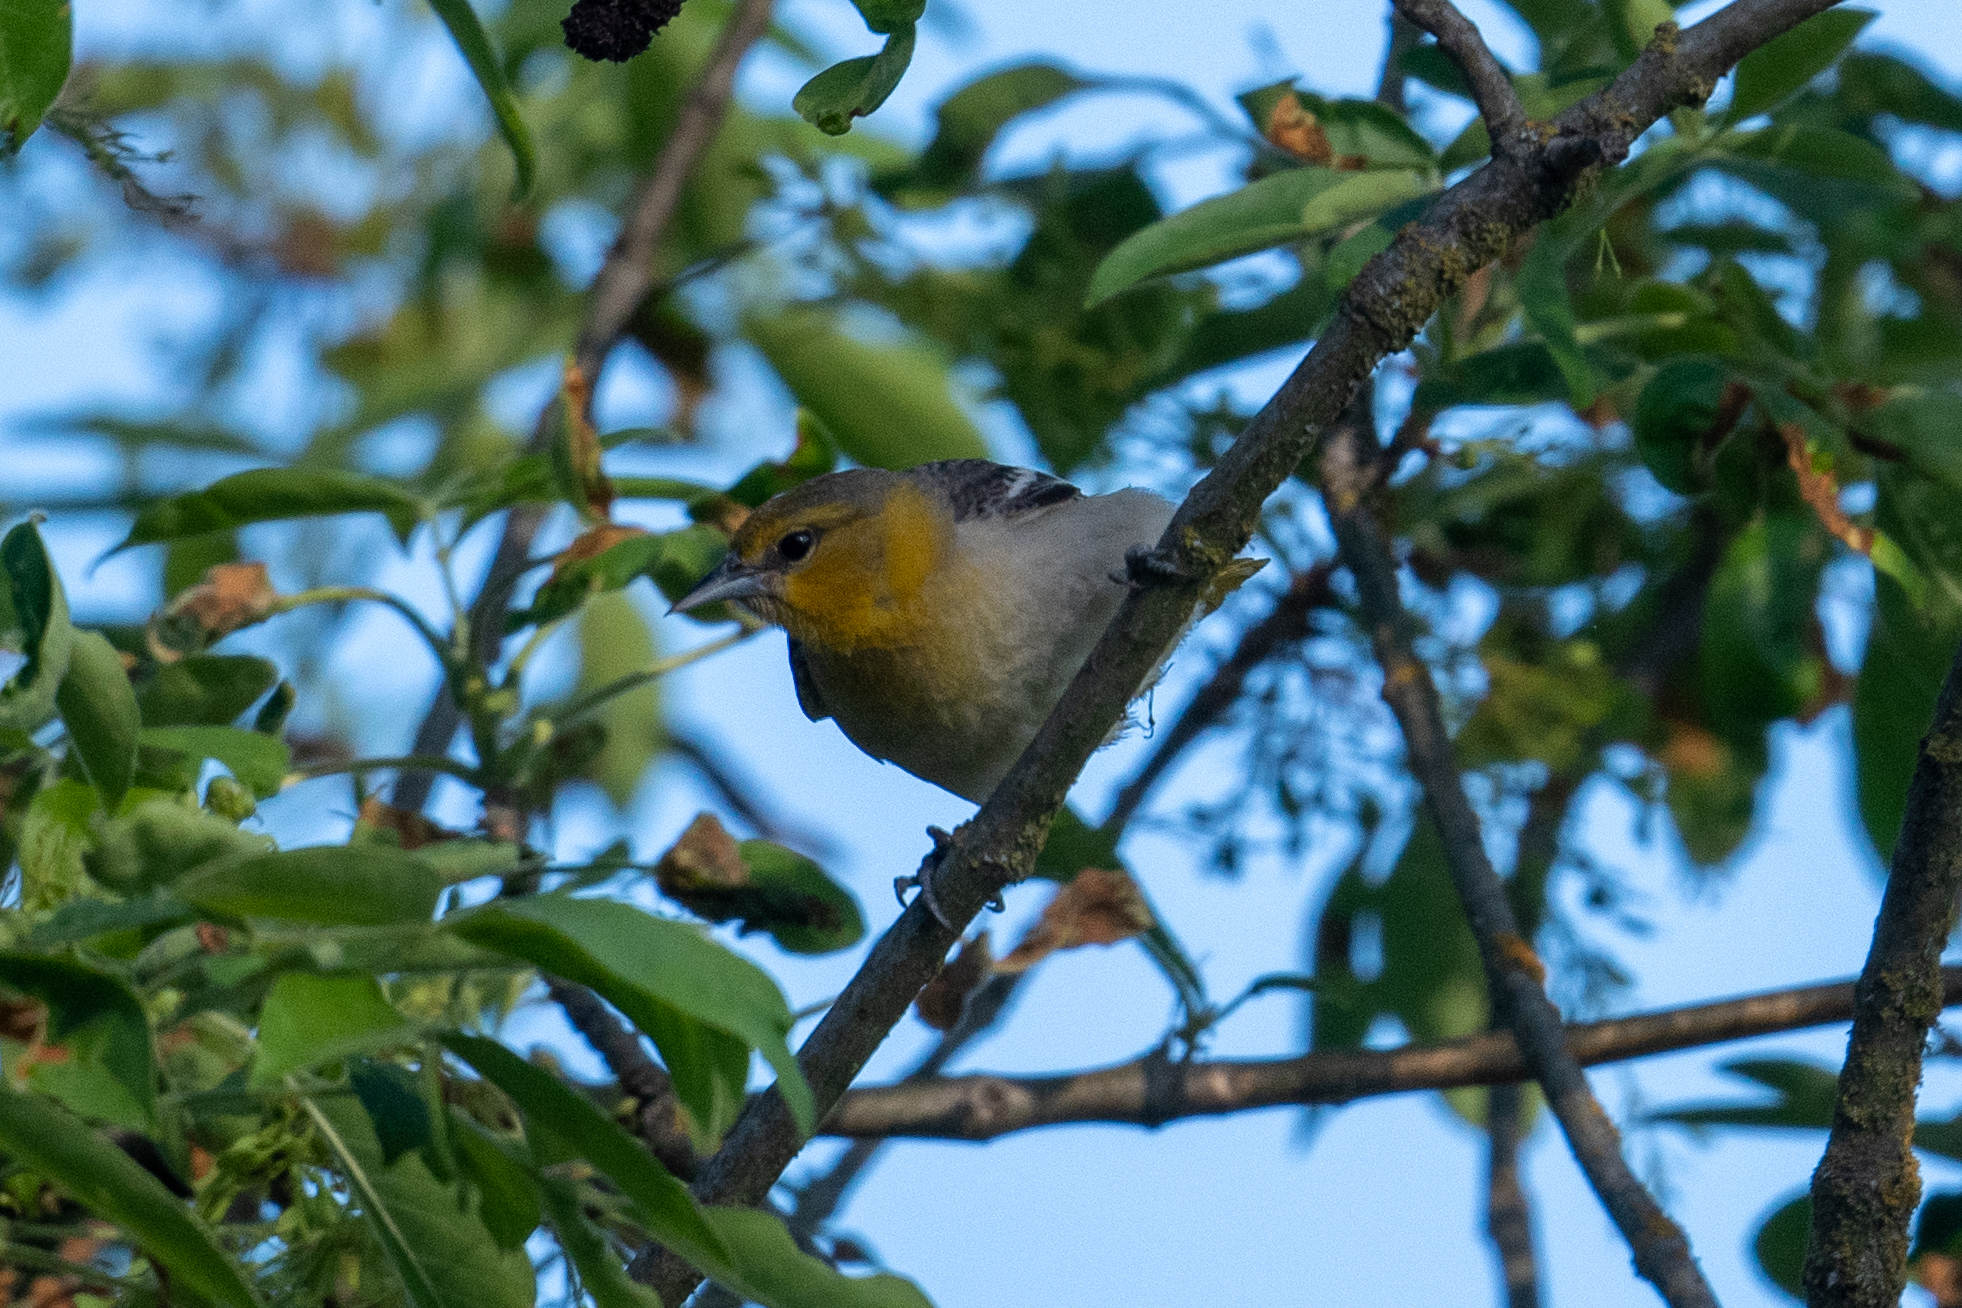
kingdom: Animalia
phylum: Chordata
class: Aves
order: Passeriformes
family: Icteridae
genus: Icterus
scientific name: Icterus bullockii
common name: Bullock's oriole
